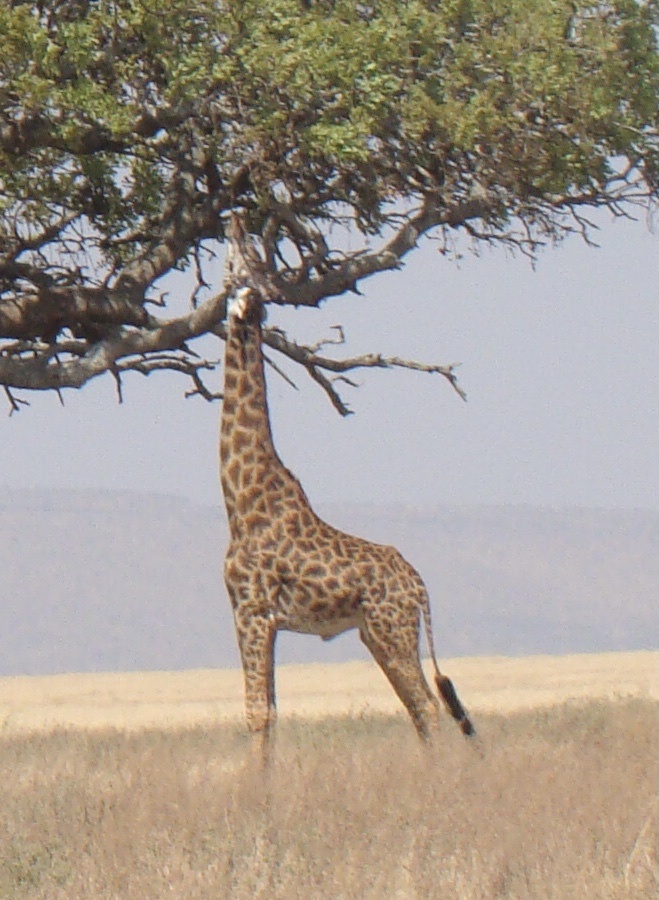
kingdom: Animalia
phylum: Chordata
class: Mammalia
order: Artiodactyla
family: Giraffidae
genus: Giraffa
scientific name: Giraffa tippelskirchi
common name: Masai giraffe
